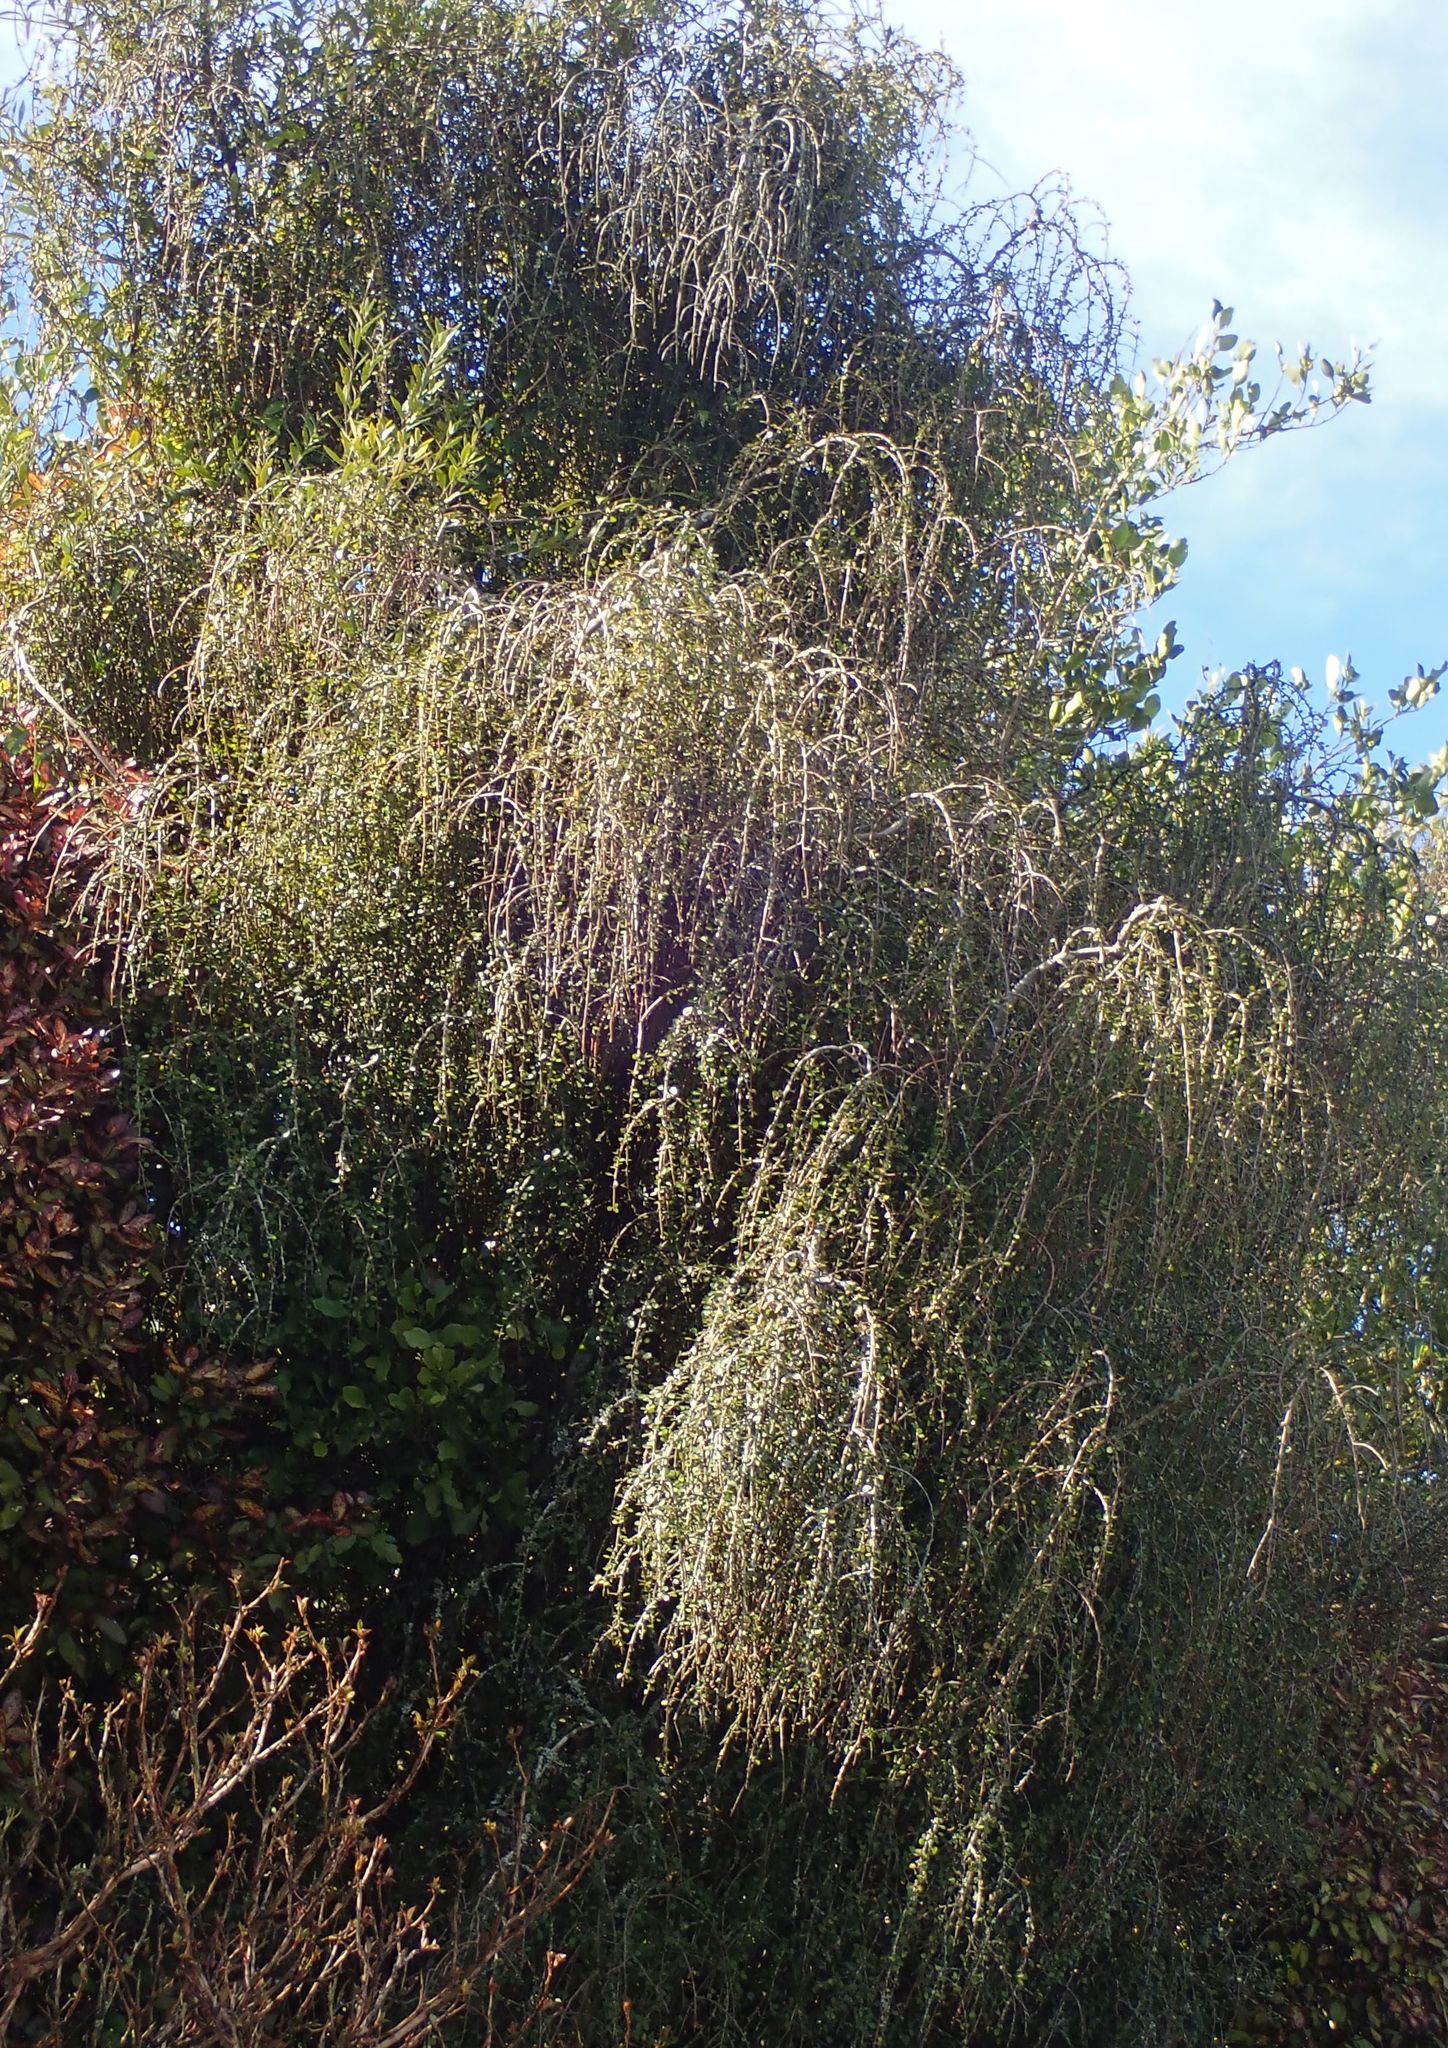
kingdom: Plantae
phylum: Tracheophyta
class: Magnoliopsida
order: Ericales
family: Primulaceae
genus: Myrsine
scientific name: Myrsine divaricata
